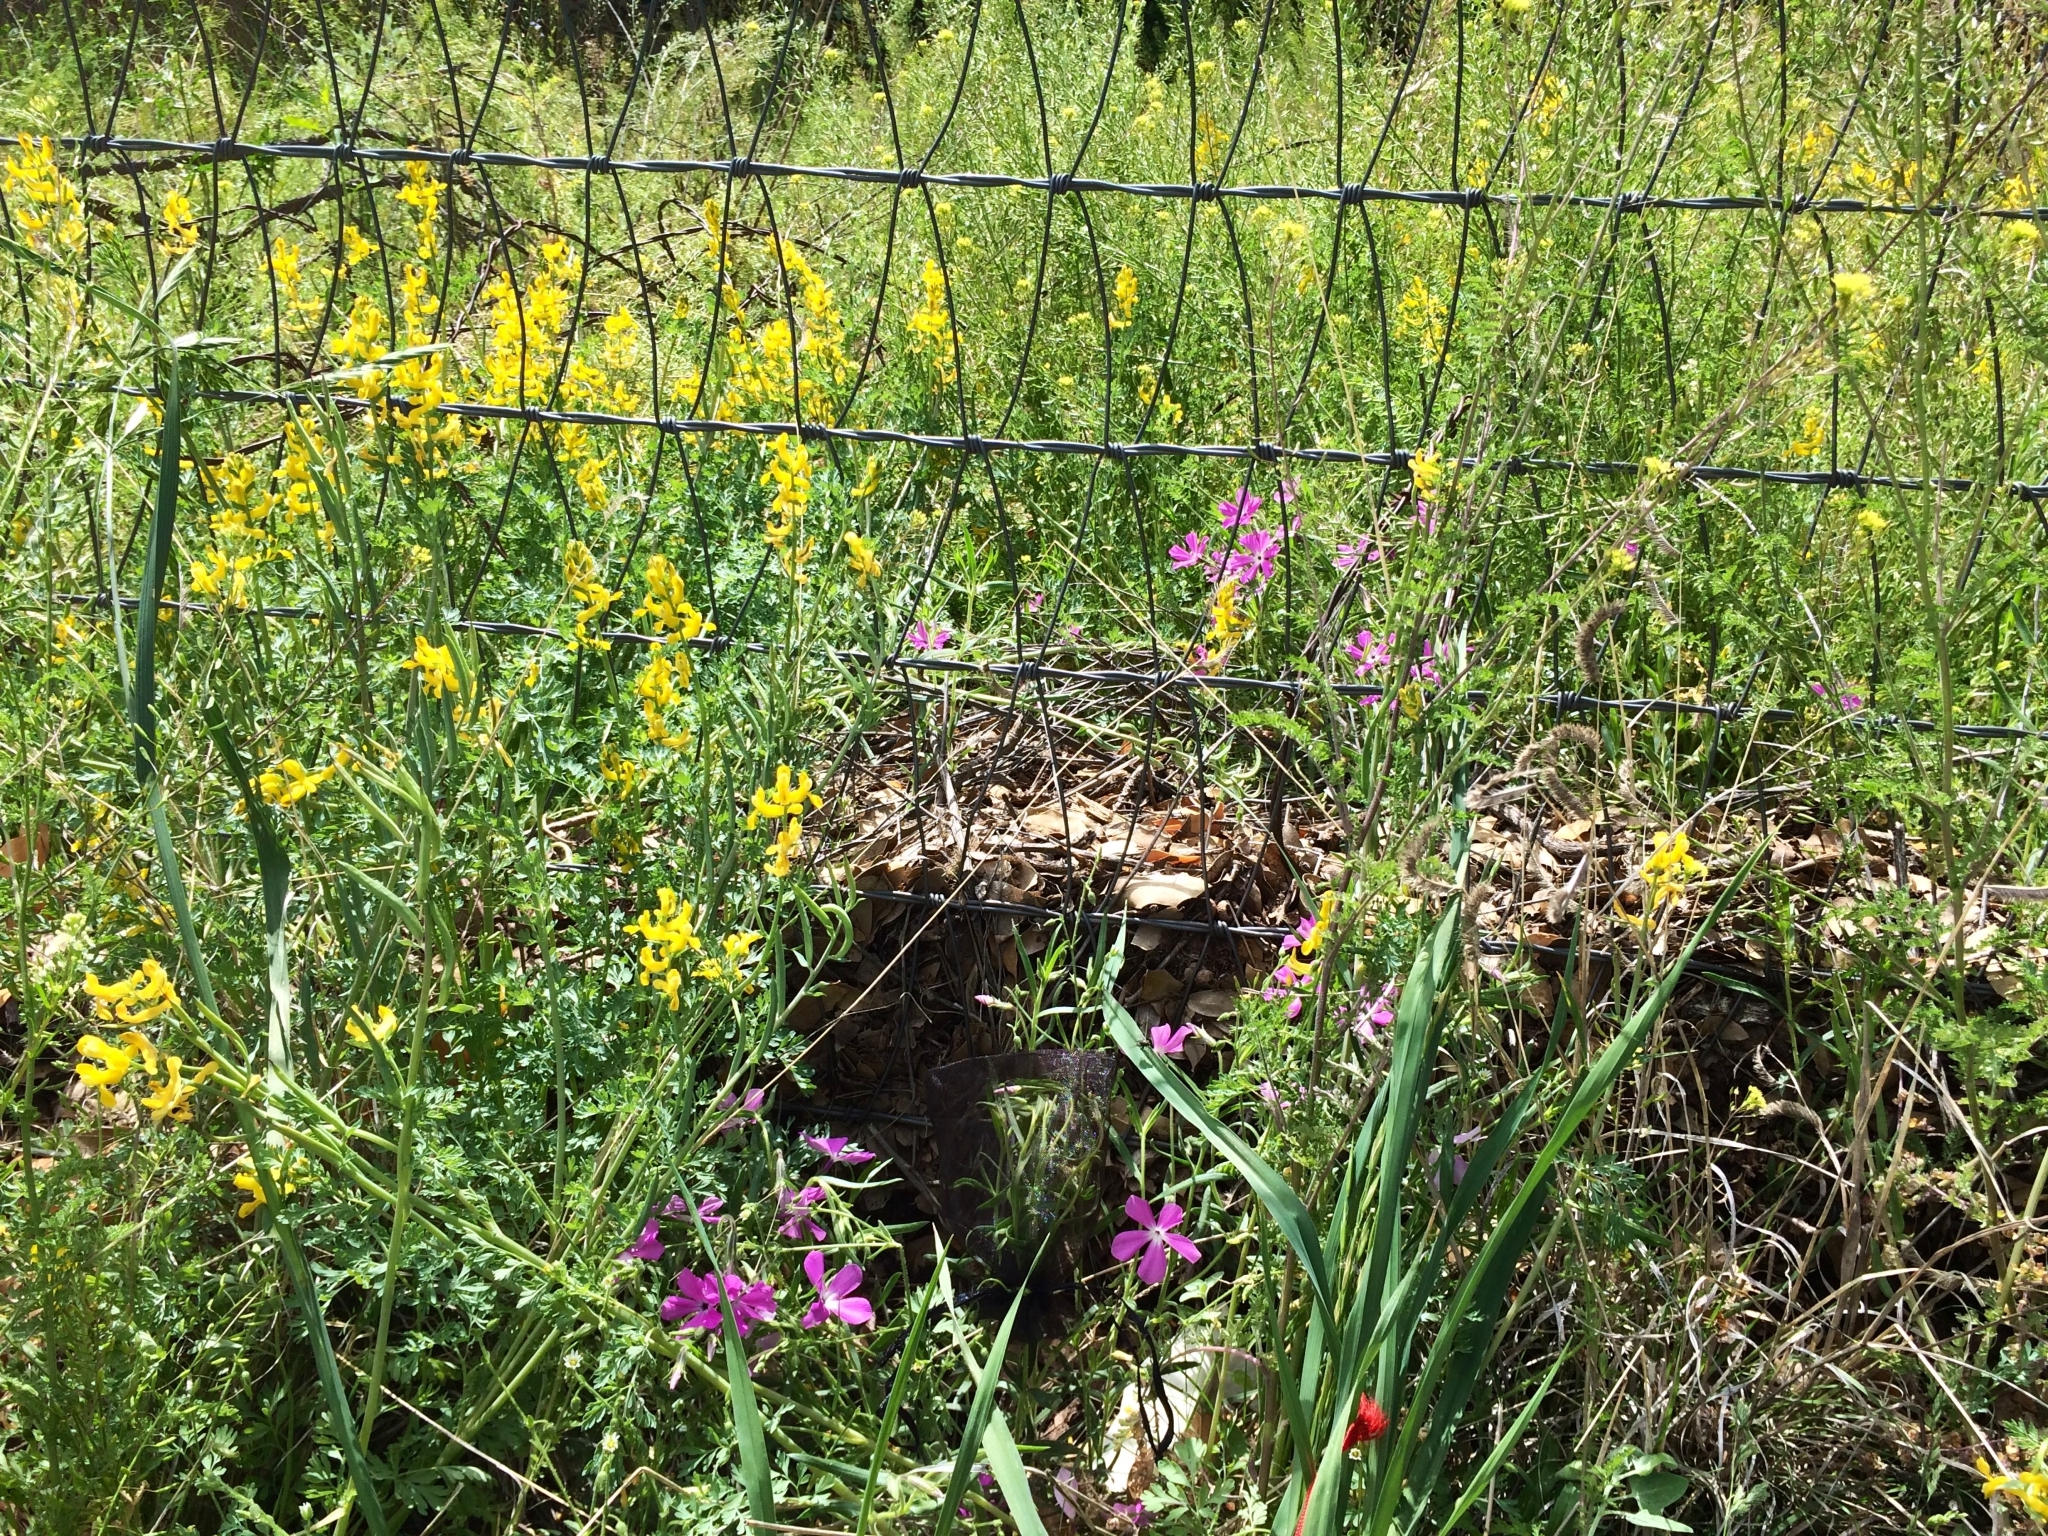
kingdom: Plantae
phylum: Tracheophyta
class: Magnoliopsida
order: Ericales
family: Polemoniaceae
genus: Phlox
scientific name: Phlox nana
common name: Santa fe phlox
